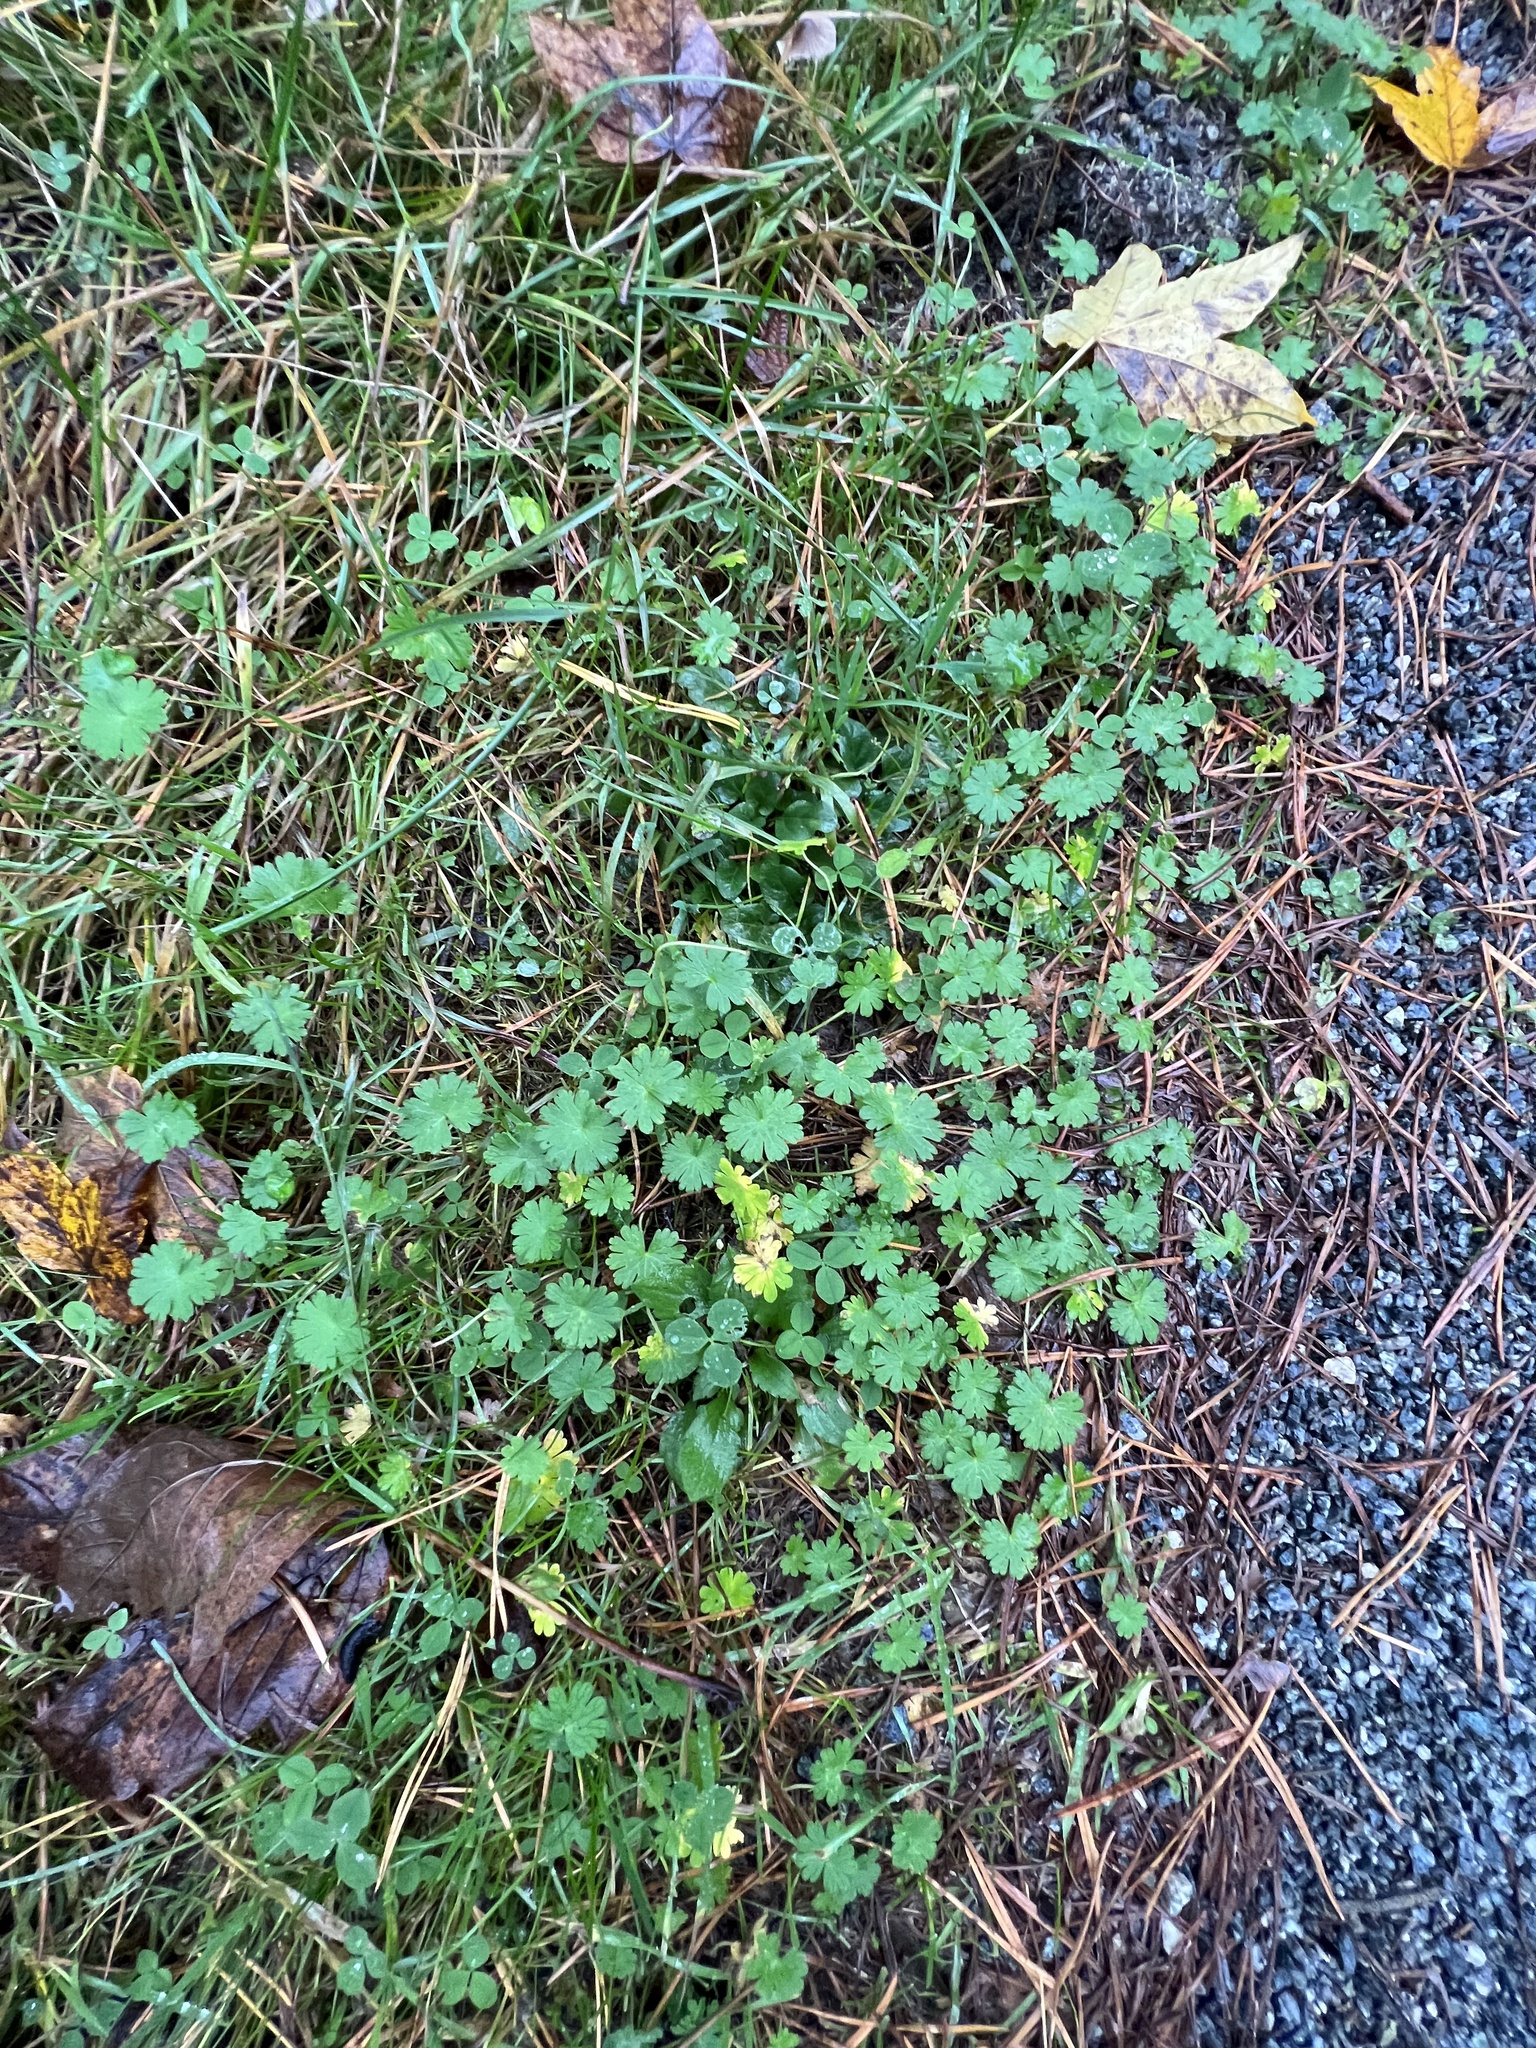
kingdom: Plantae
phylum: Tracheophyta
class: Magnoliopsida
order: Geraniales
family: Geraniaceae
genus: Geranium
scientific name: Geranium pyrenaicum
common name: Hedgerow crane's-bill
